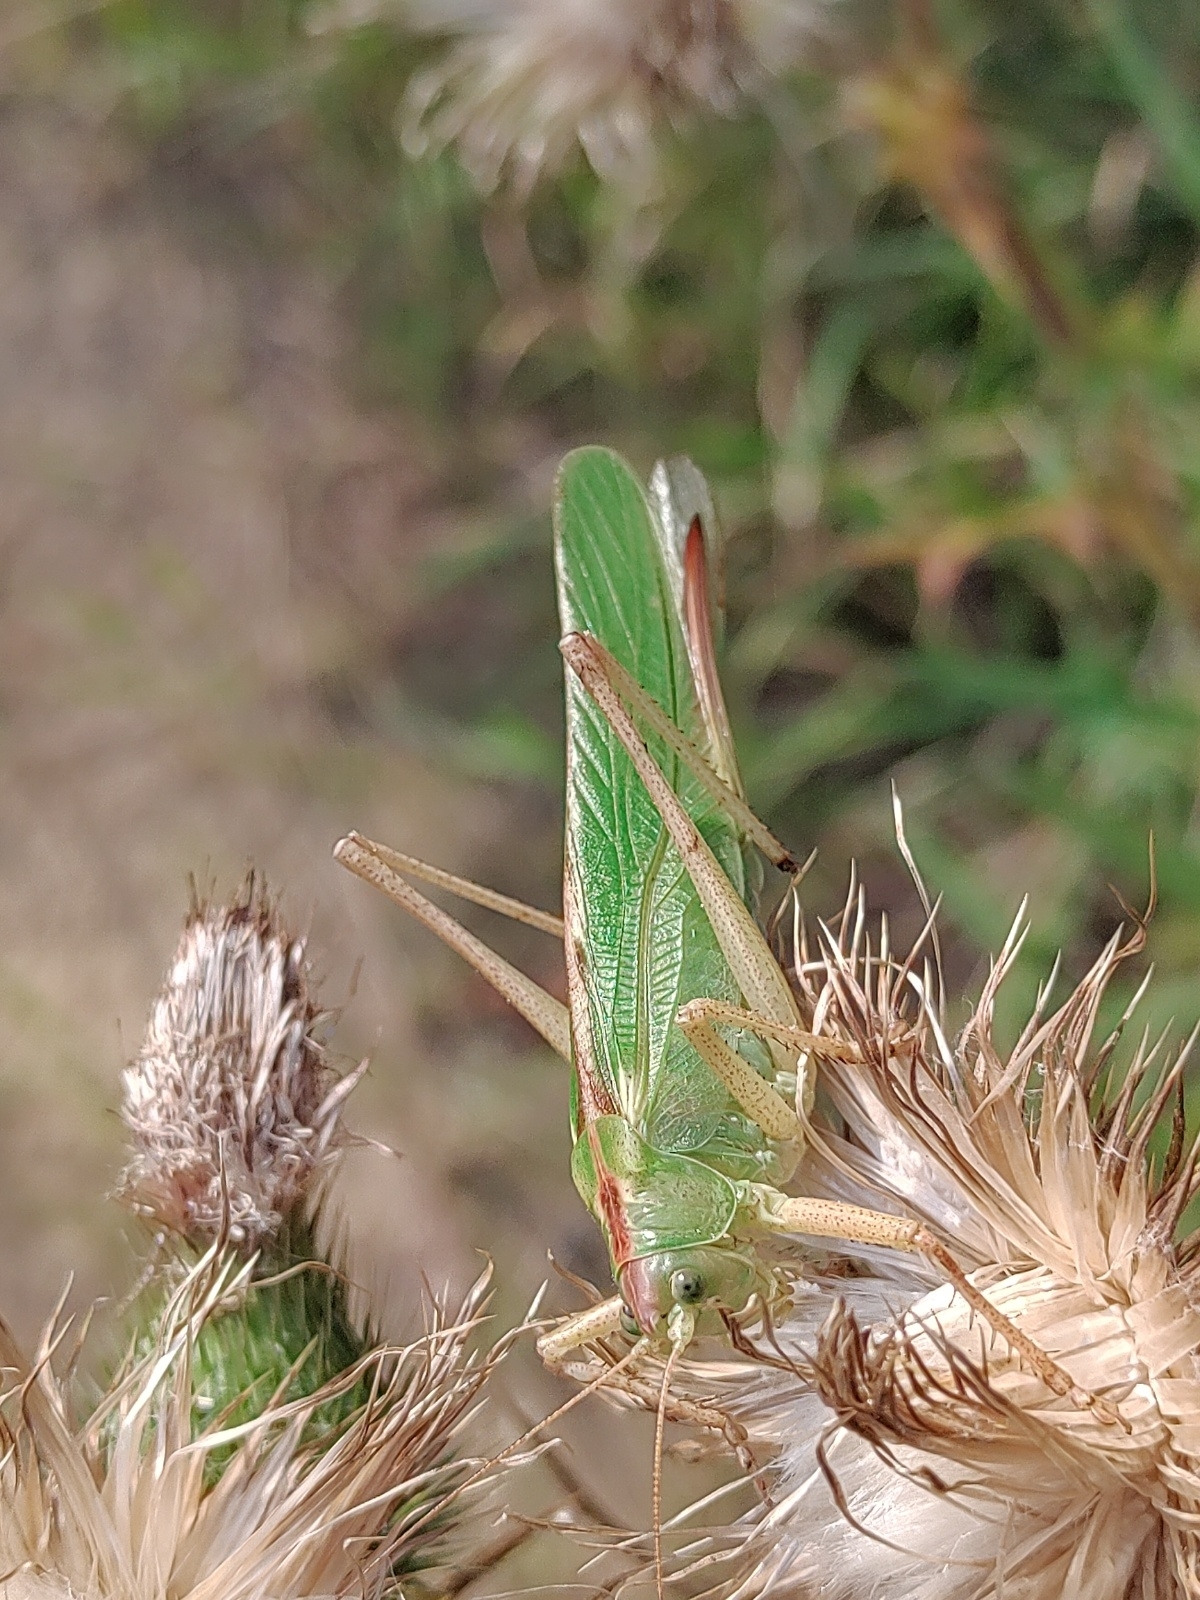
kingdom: Animalia
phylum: Arthropoda
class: Insecta
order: Orthoptera
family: Tettigoniidae
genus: Tettigonia
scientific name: Tettigonia viridissima
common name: Great green bush-cricket
